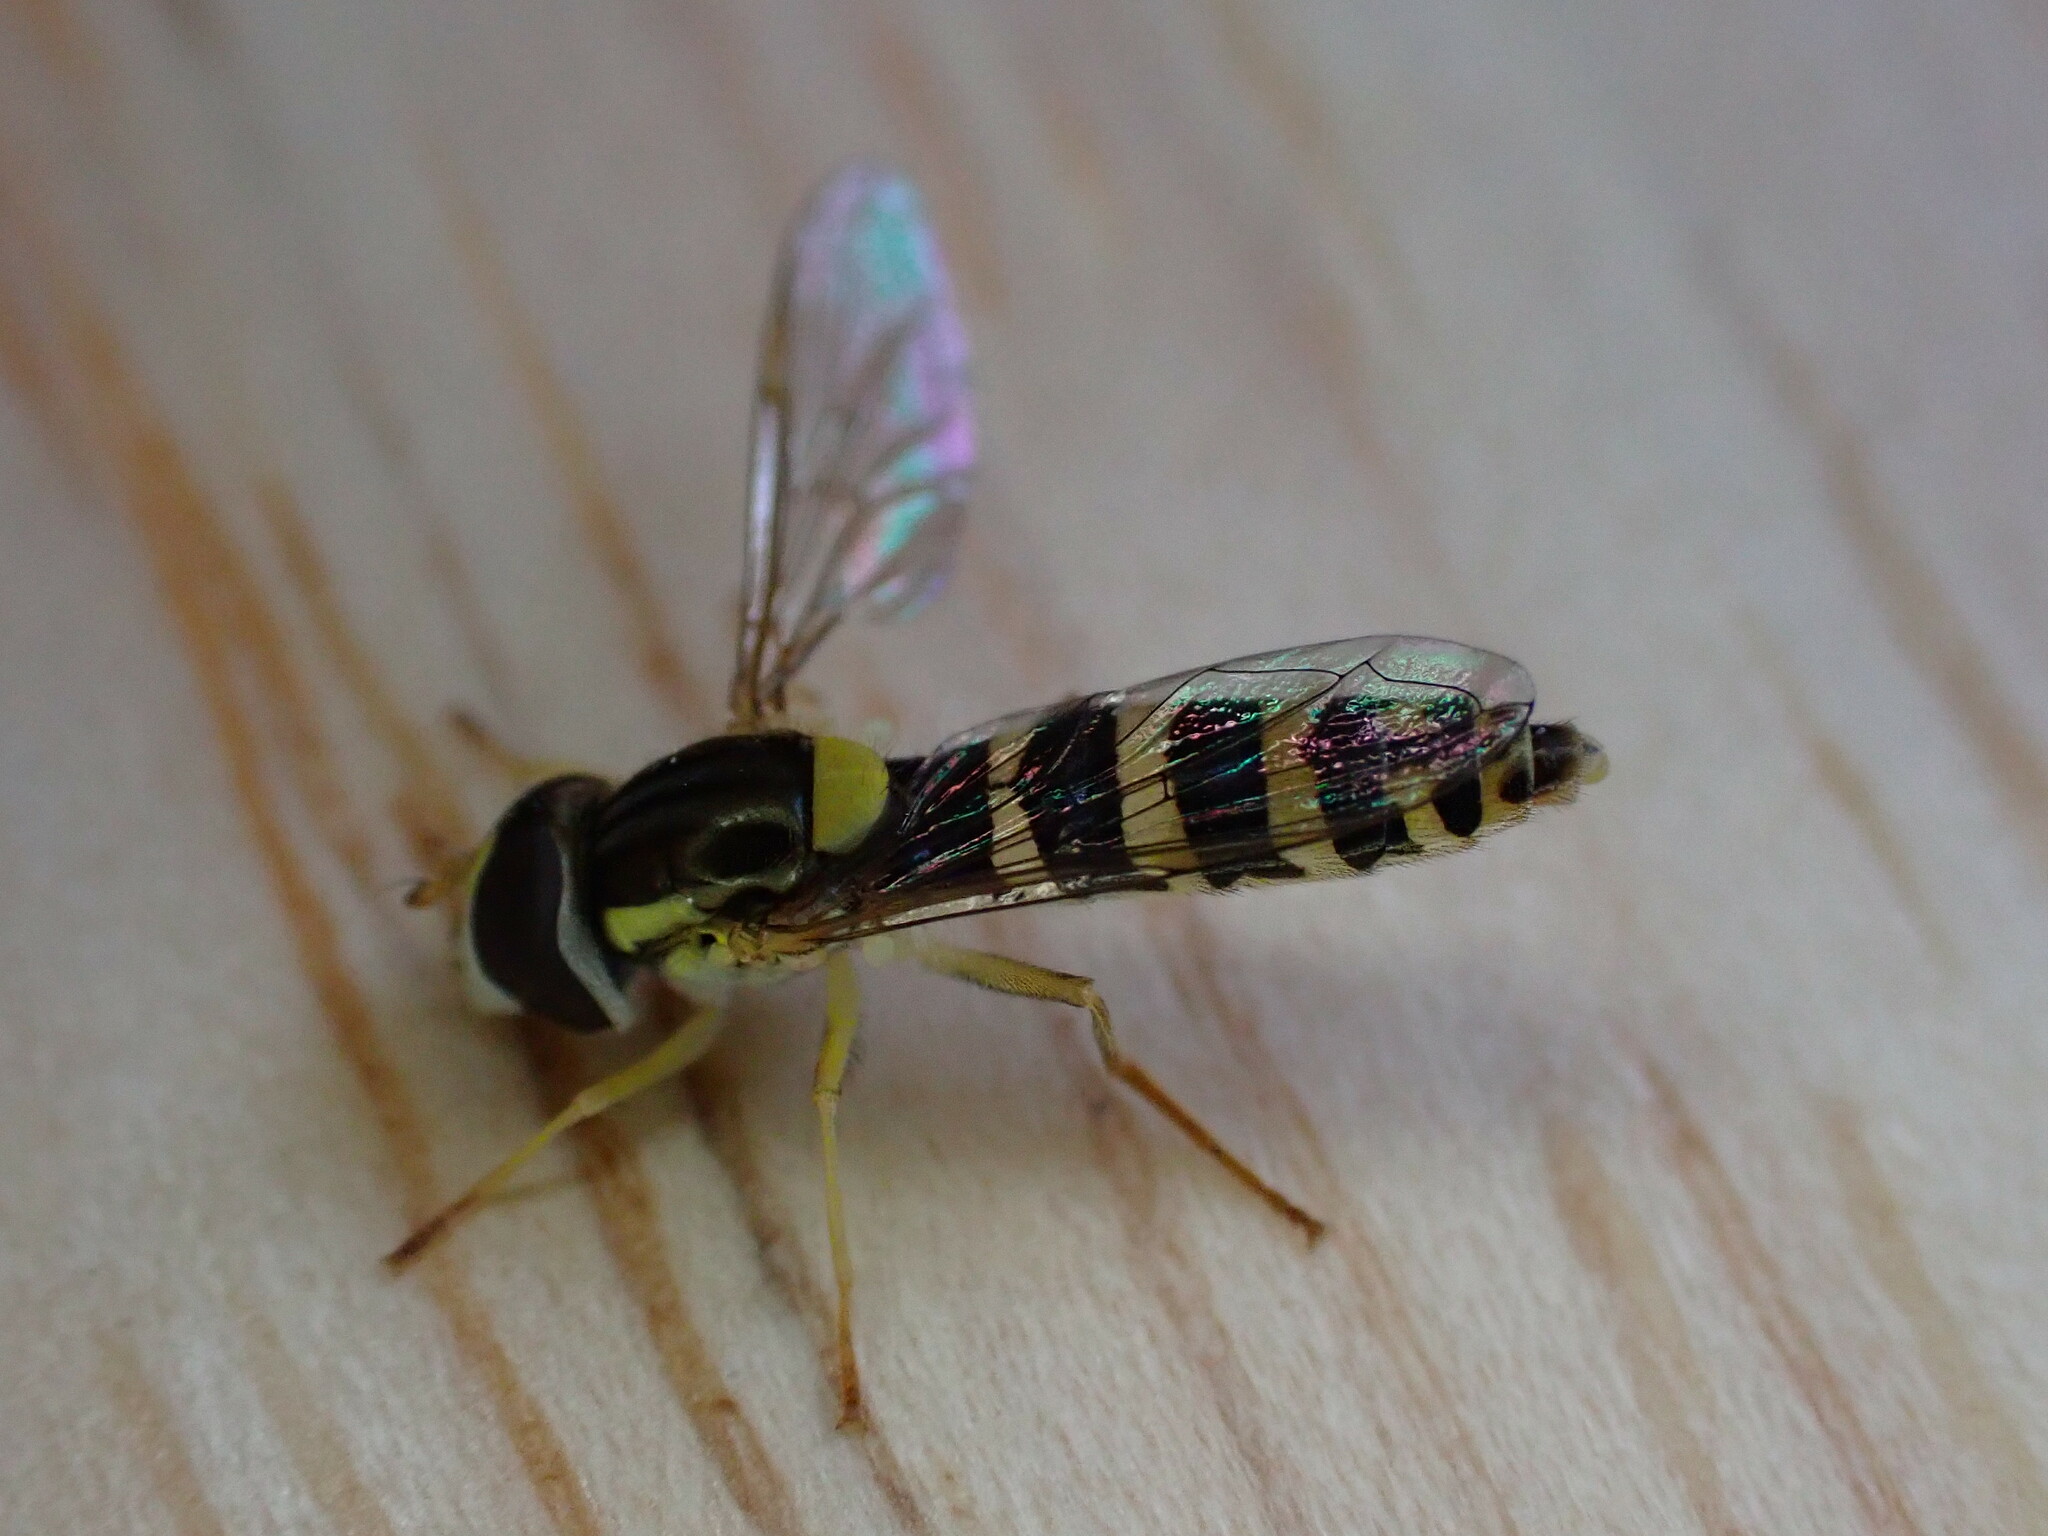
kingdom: Animalia
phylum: Arthropoda
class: Insecta
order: Diptera
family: Syrphidae
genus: Sphaerophoria
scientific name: Sphaerophoria
